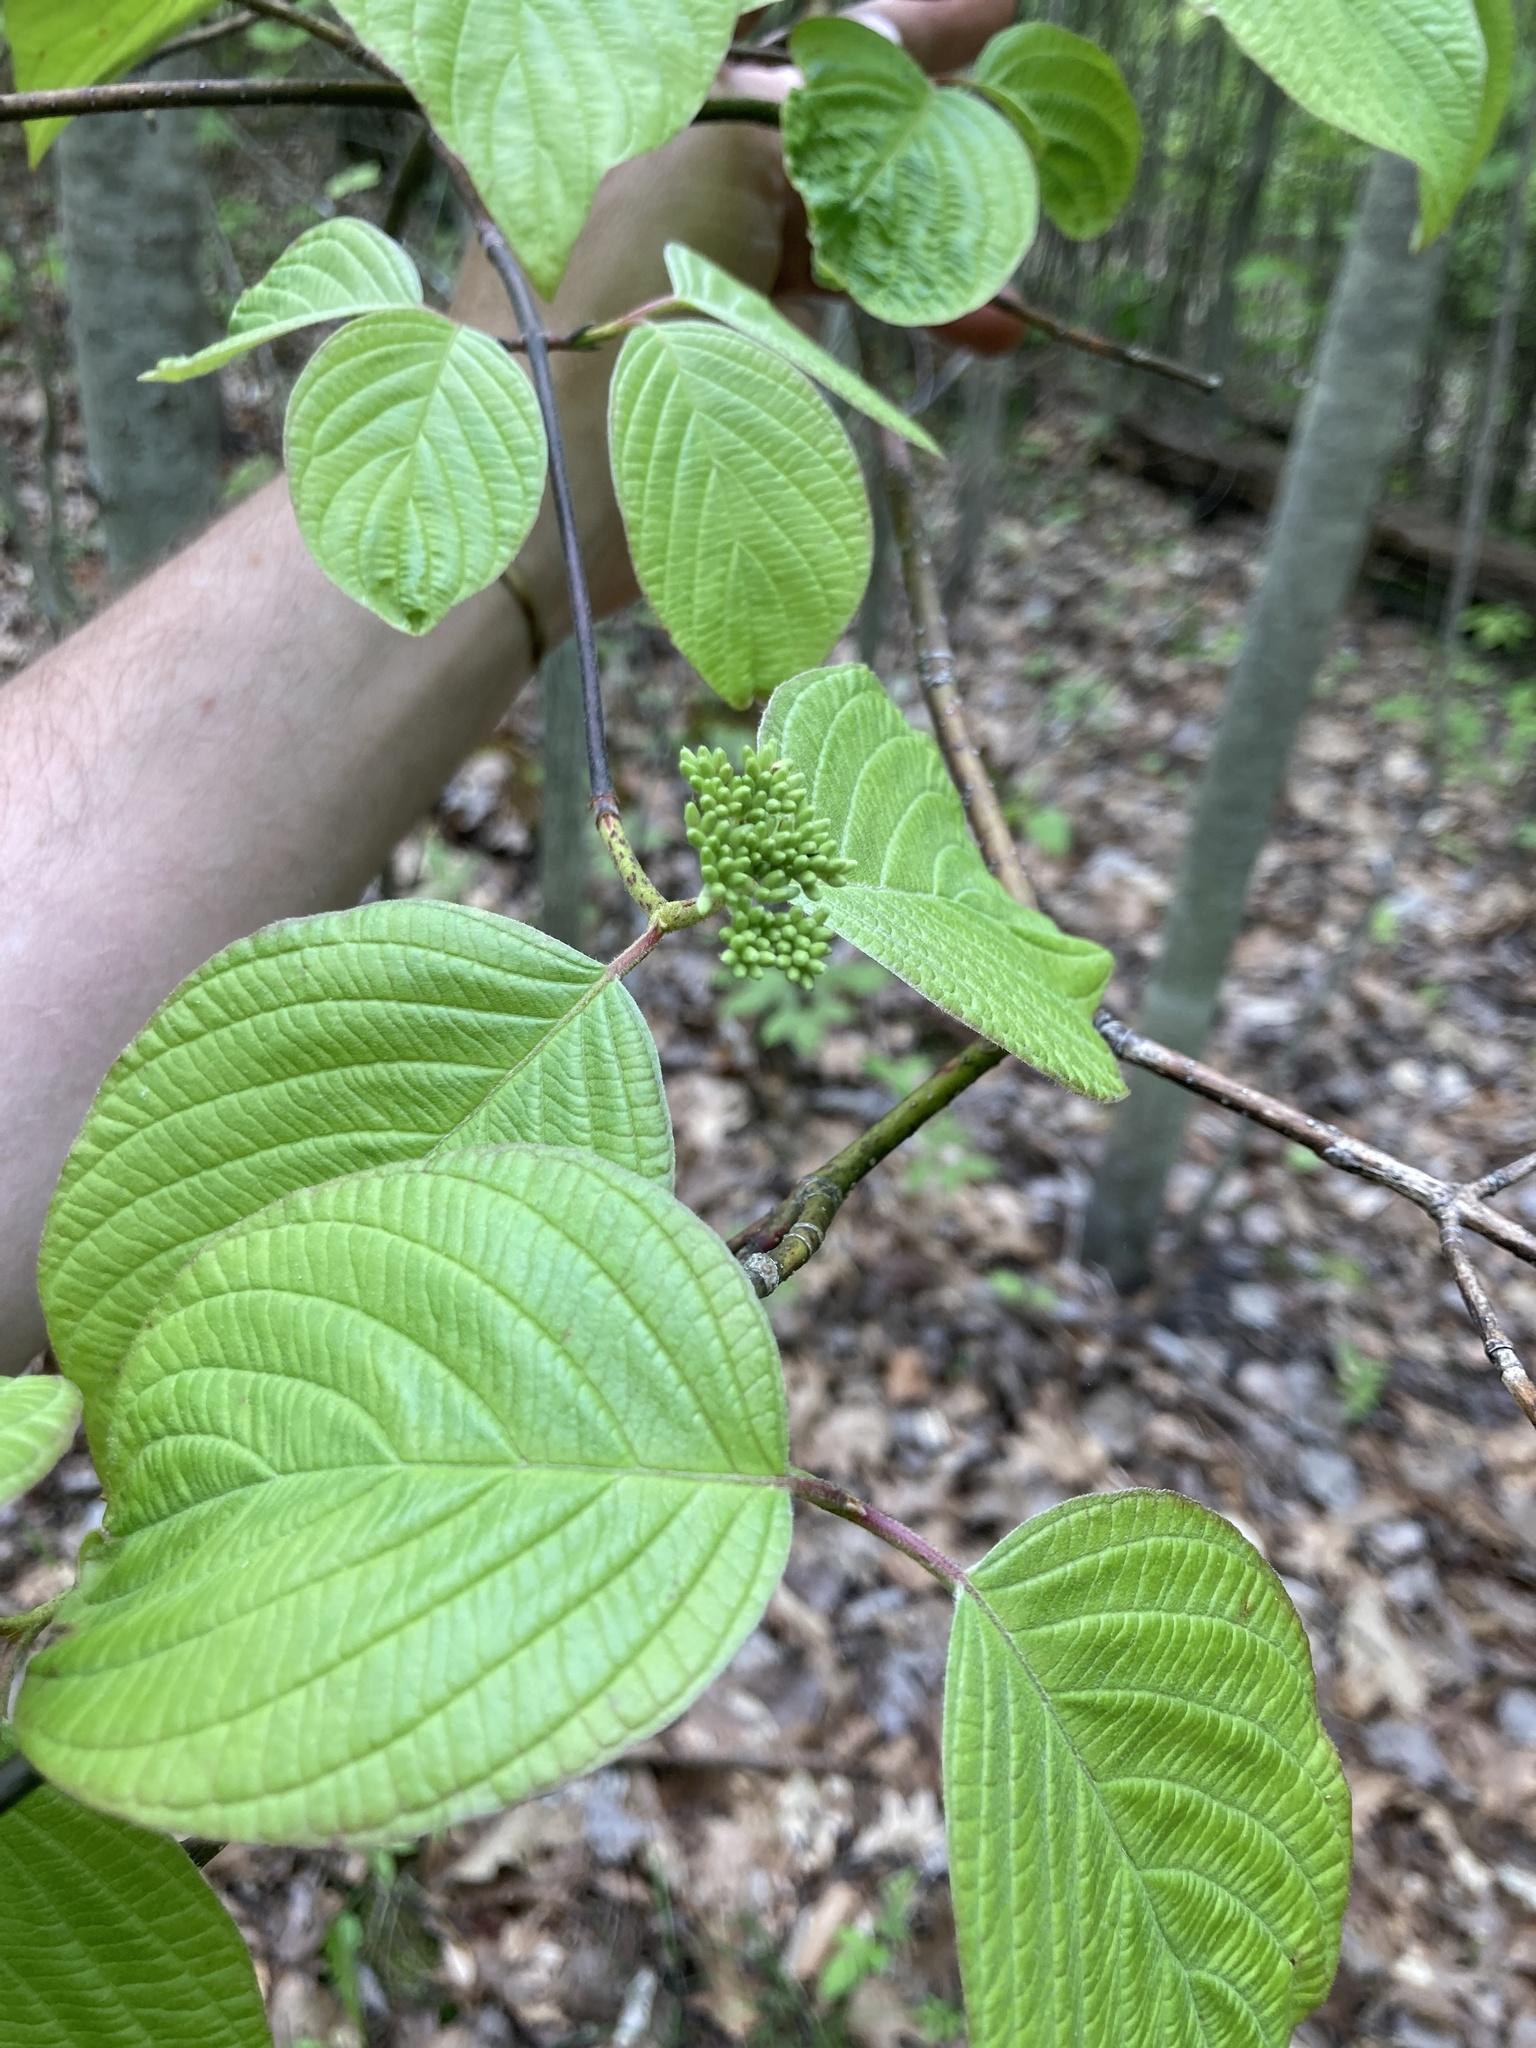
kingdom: Plantae
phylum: Tracheophyta
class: Magnoliopsida
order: Cornales
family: Cornaceae
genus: Cornus
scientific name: Cornus rugosa
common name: Round-leaf dogwood
